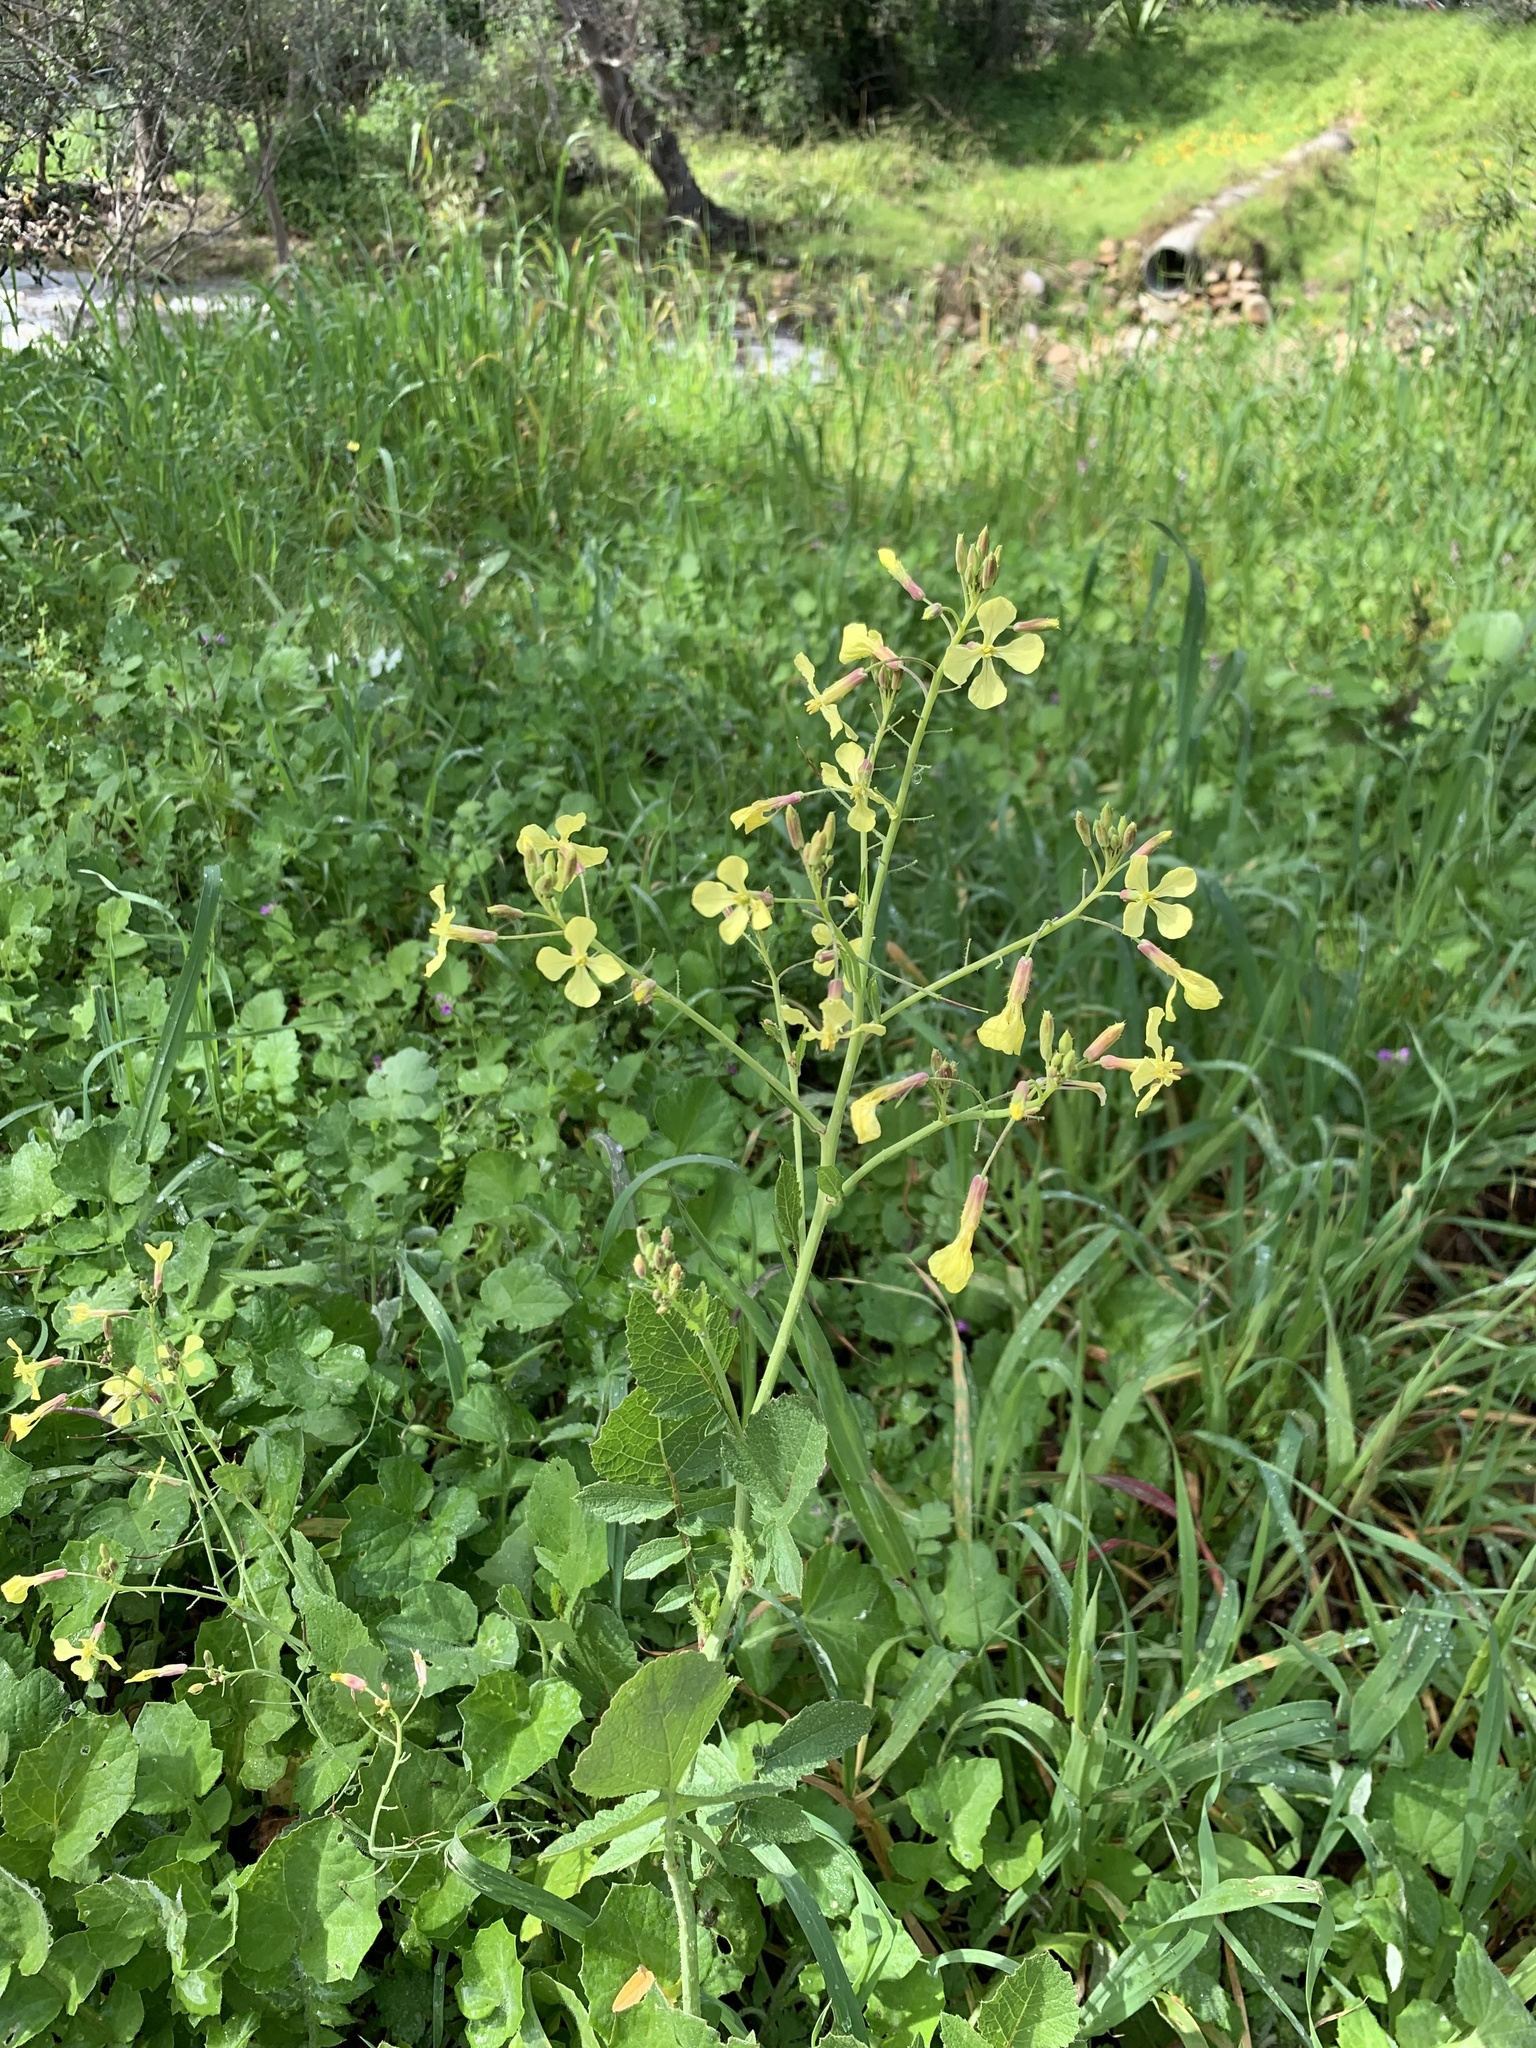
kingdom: Plantae
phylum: Tracheophyta
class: Magnoliopsida
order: Brassicales
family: Brassicaceae
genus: Raphanus
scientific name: Raphanus raphanistrum
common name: Wild radish
